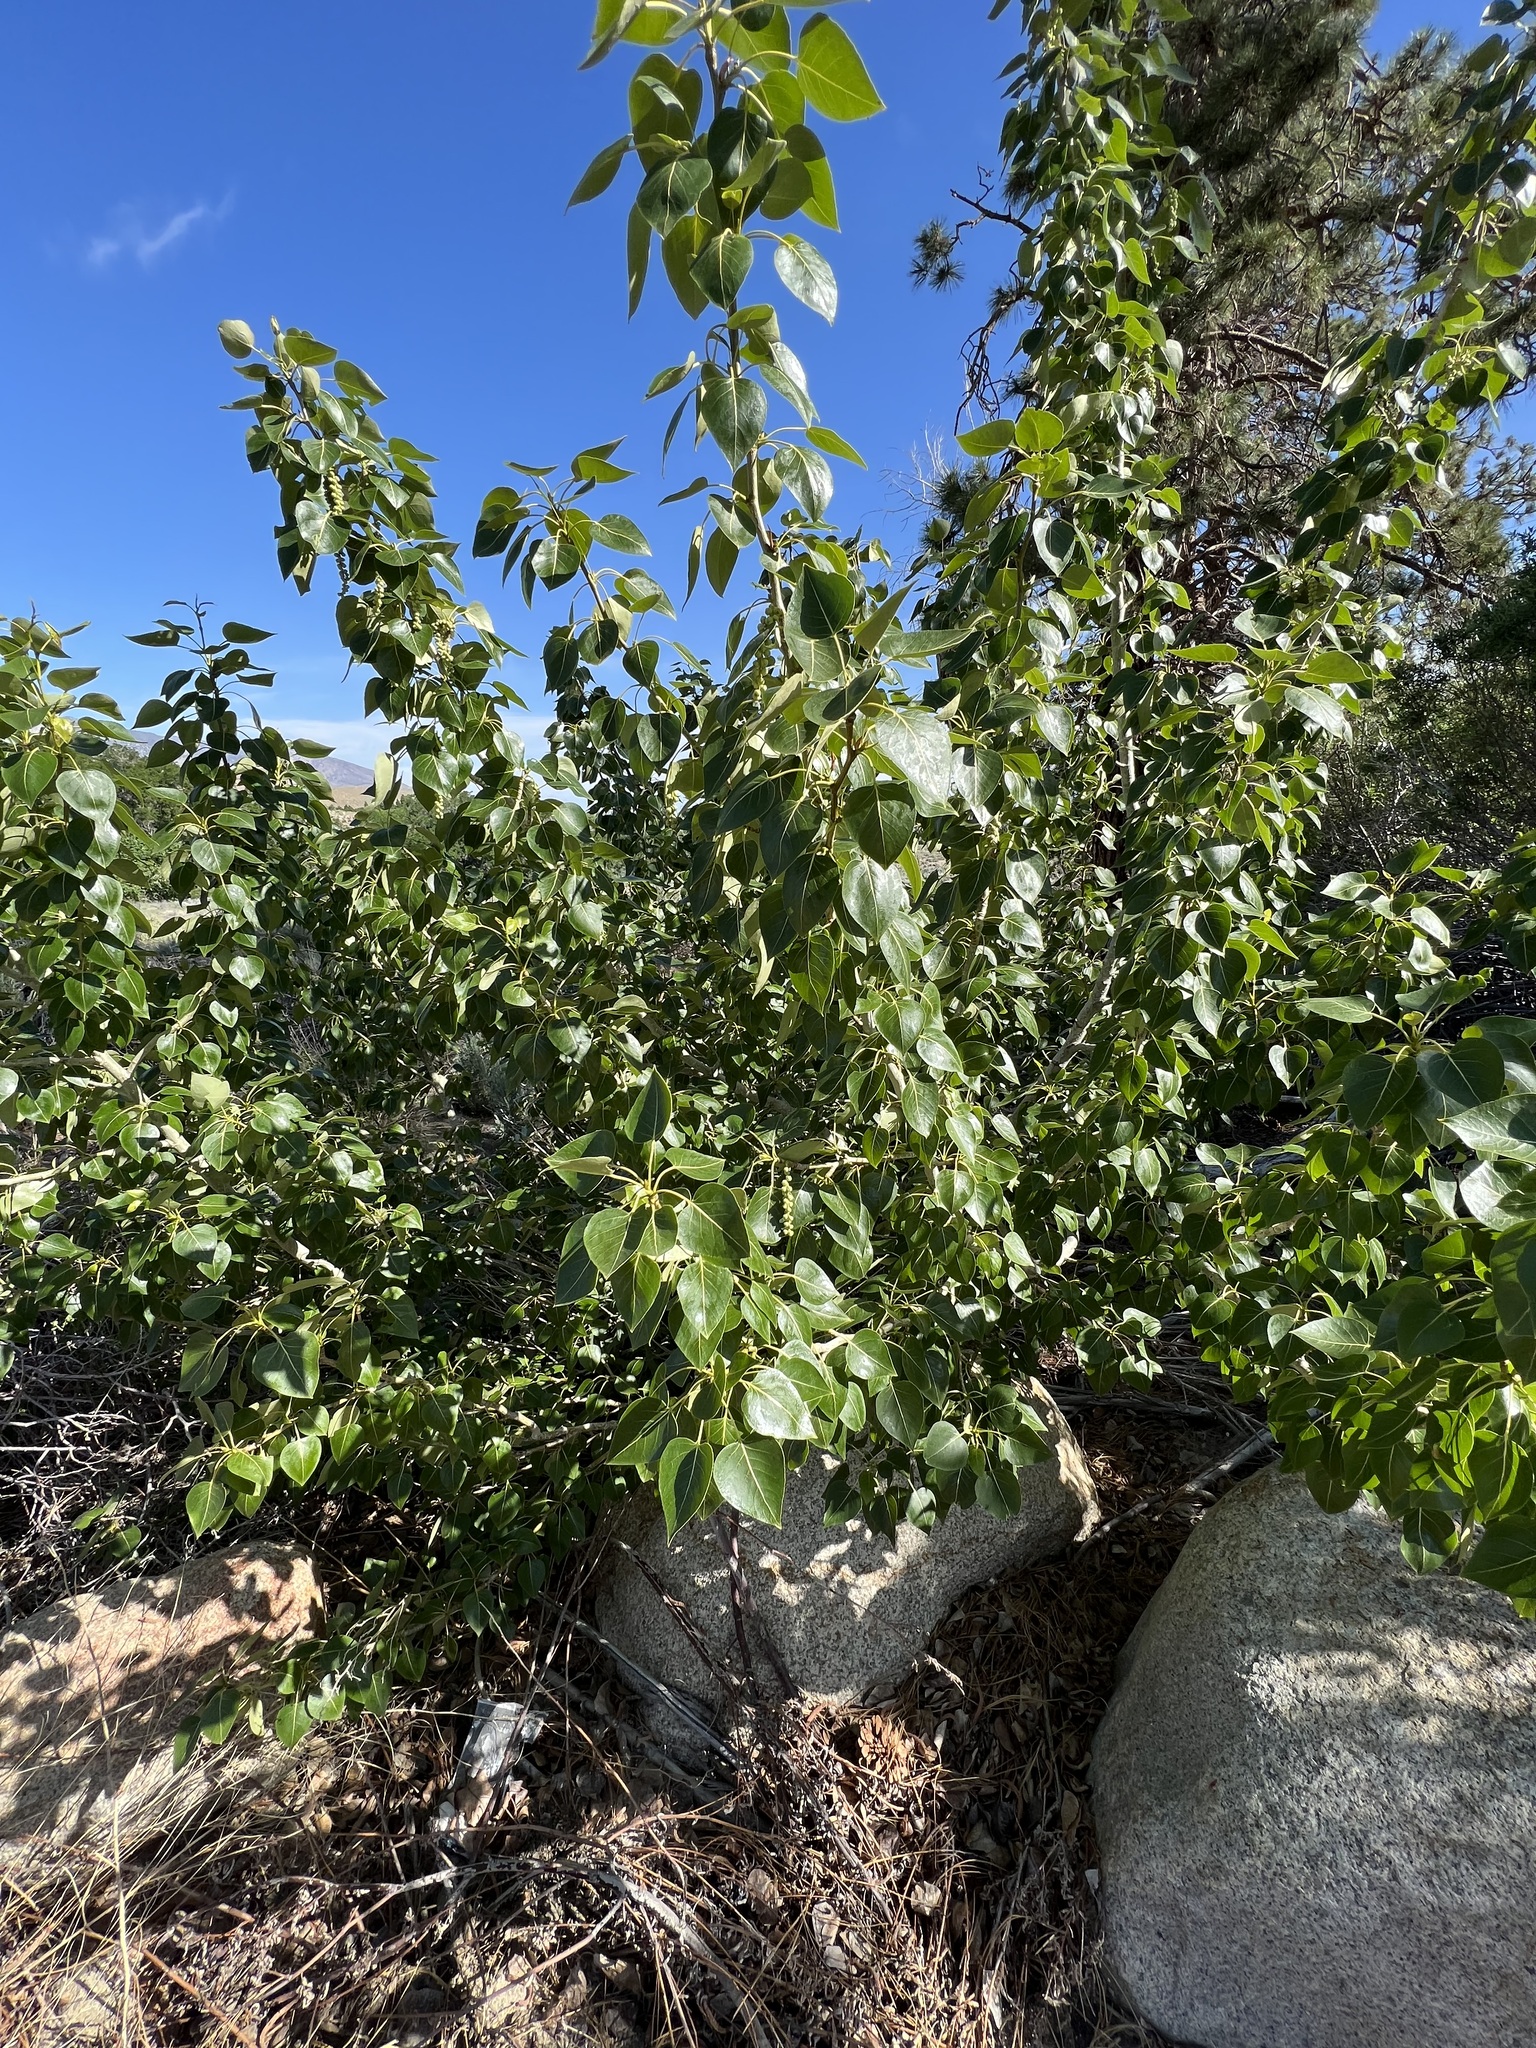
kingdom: Plantae
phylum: Tracheophyta
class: Magnoliopsida
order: Malpighiales
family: Salicaceae
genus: Populus
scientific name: Populus trichocarpa
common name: Black cottonwood
